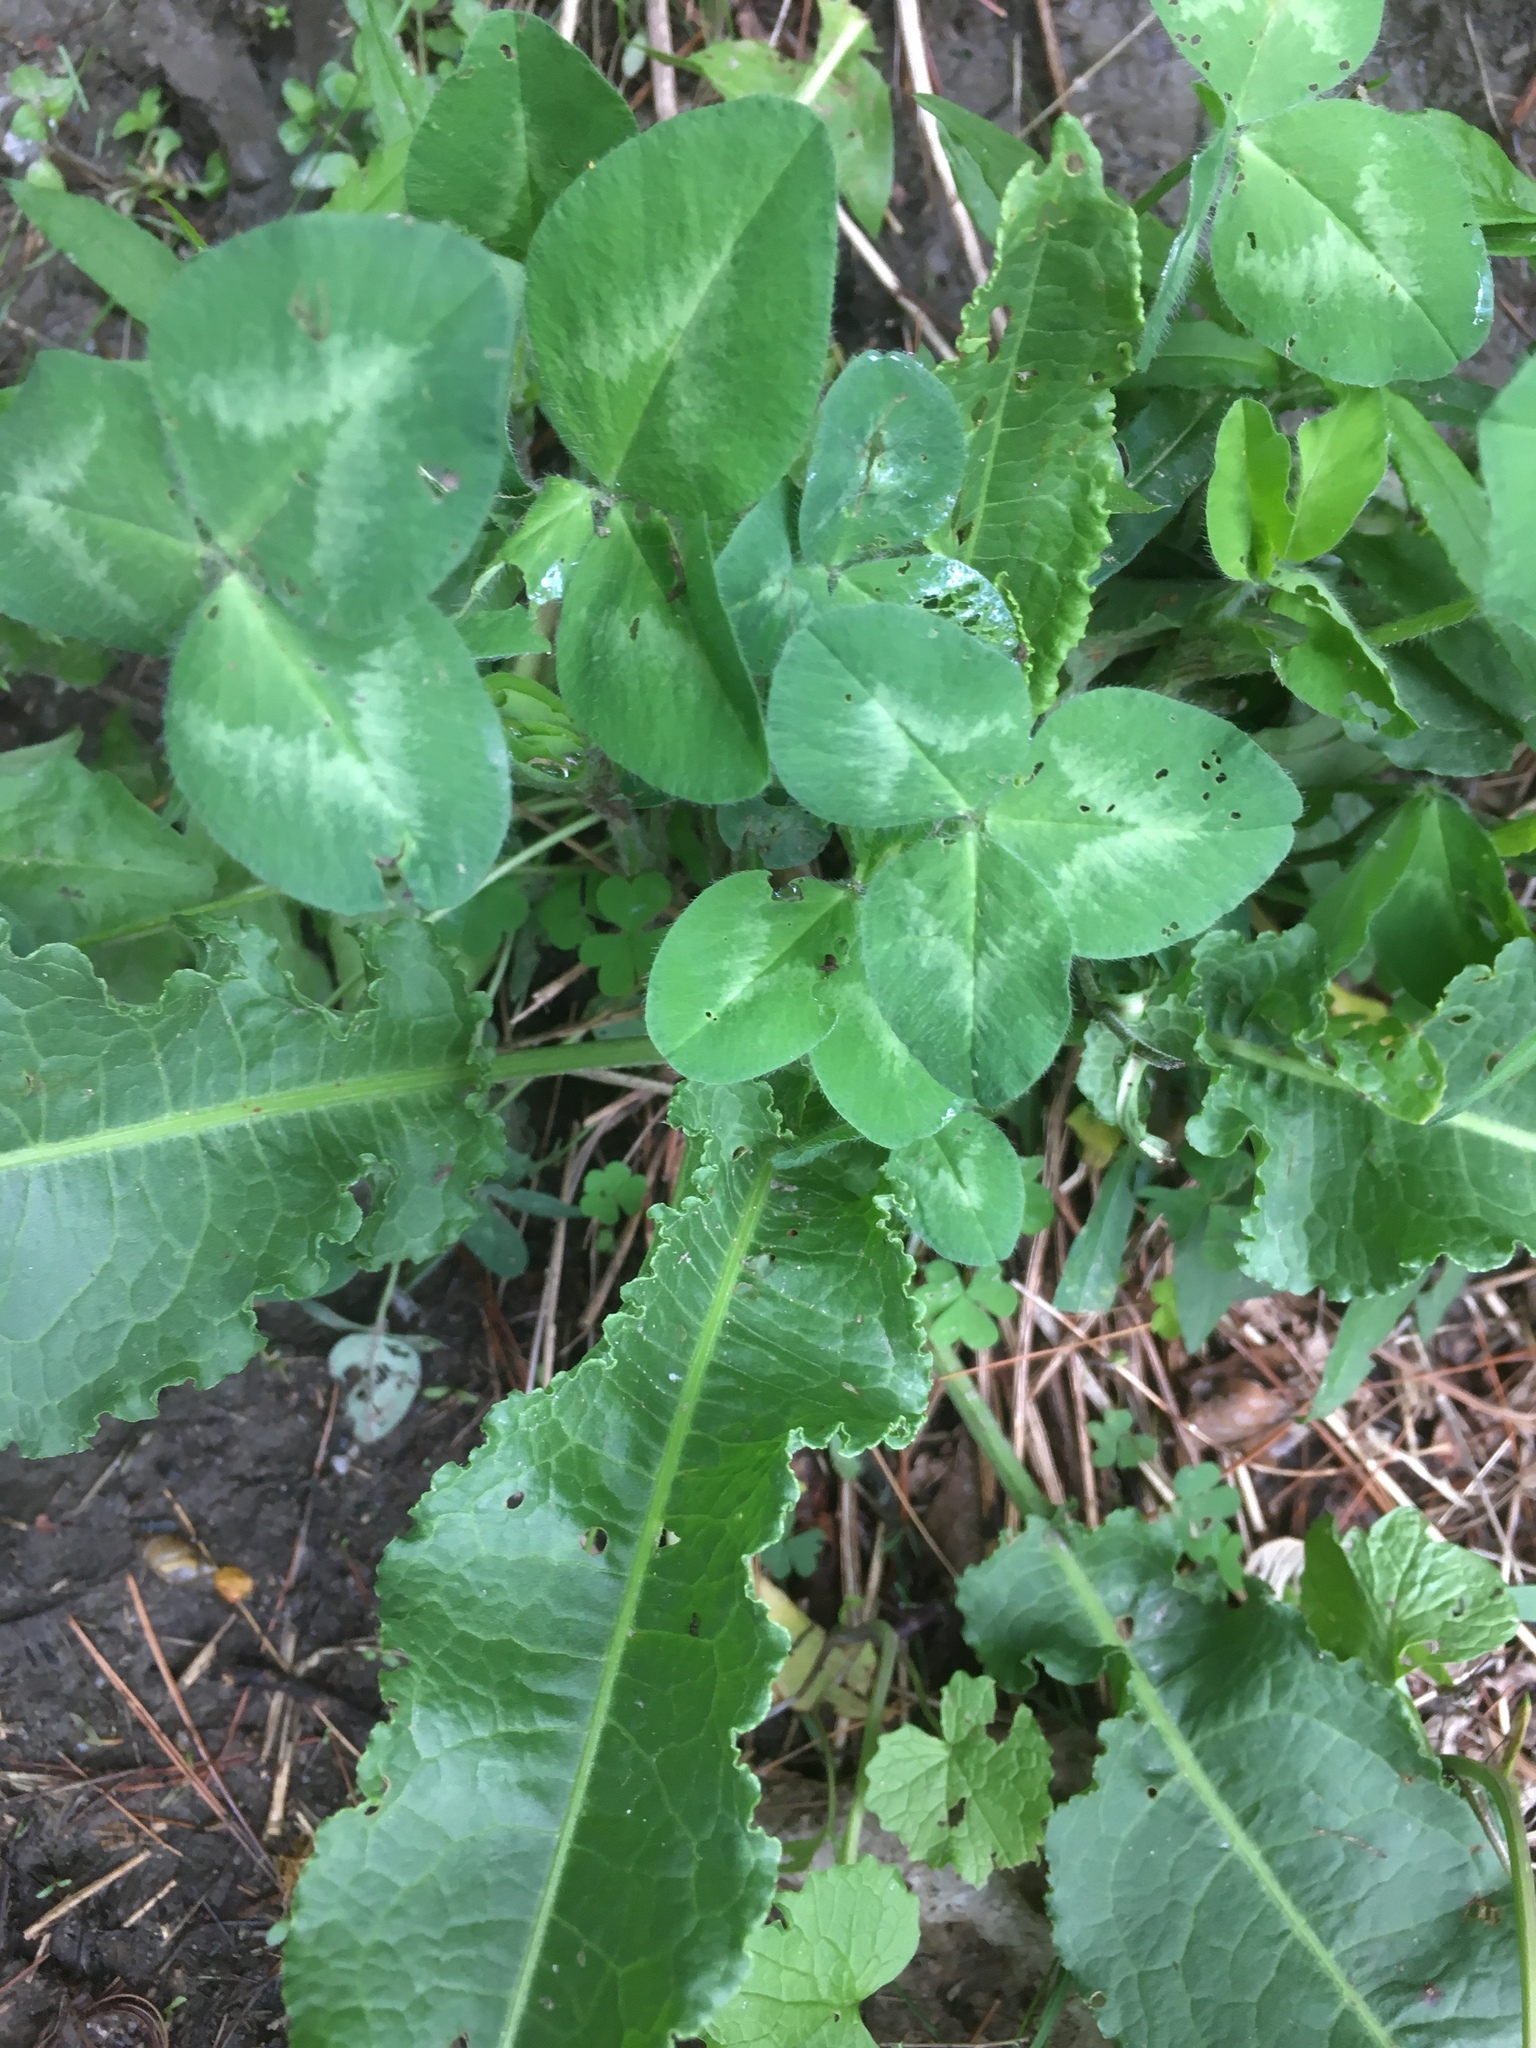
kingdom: Plantae
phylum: Tracheophyta
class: Magnoliopsida
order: Fabales
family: Fabaceae
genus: Trifolium
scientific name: Trifolium pratense
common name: Red clover
